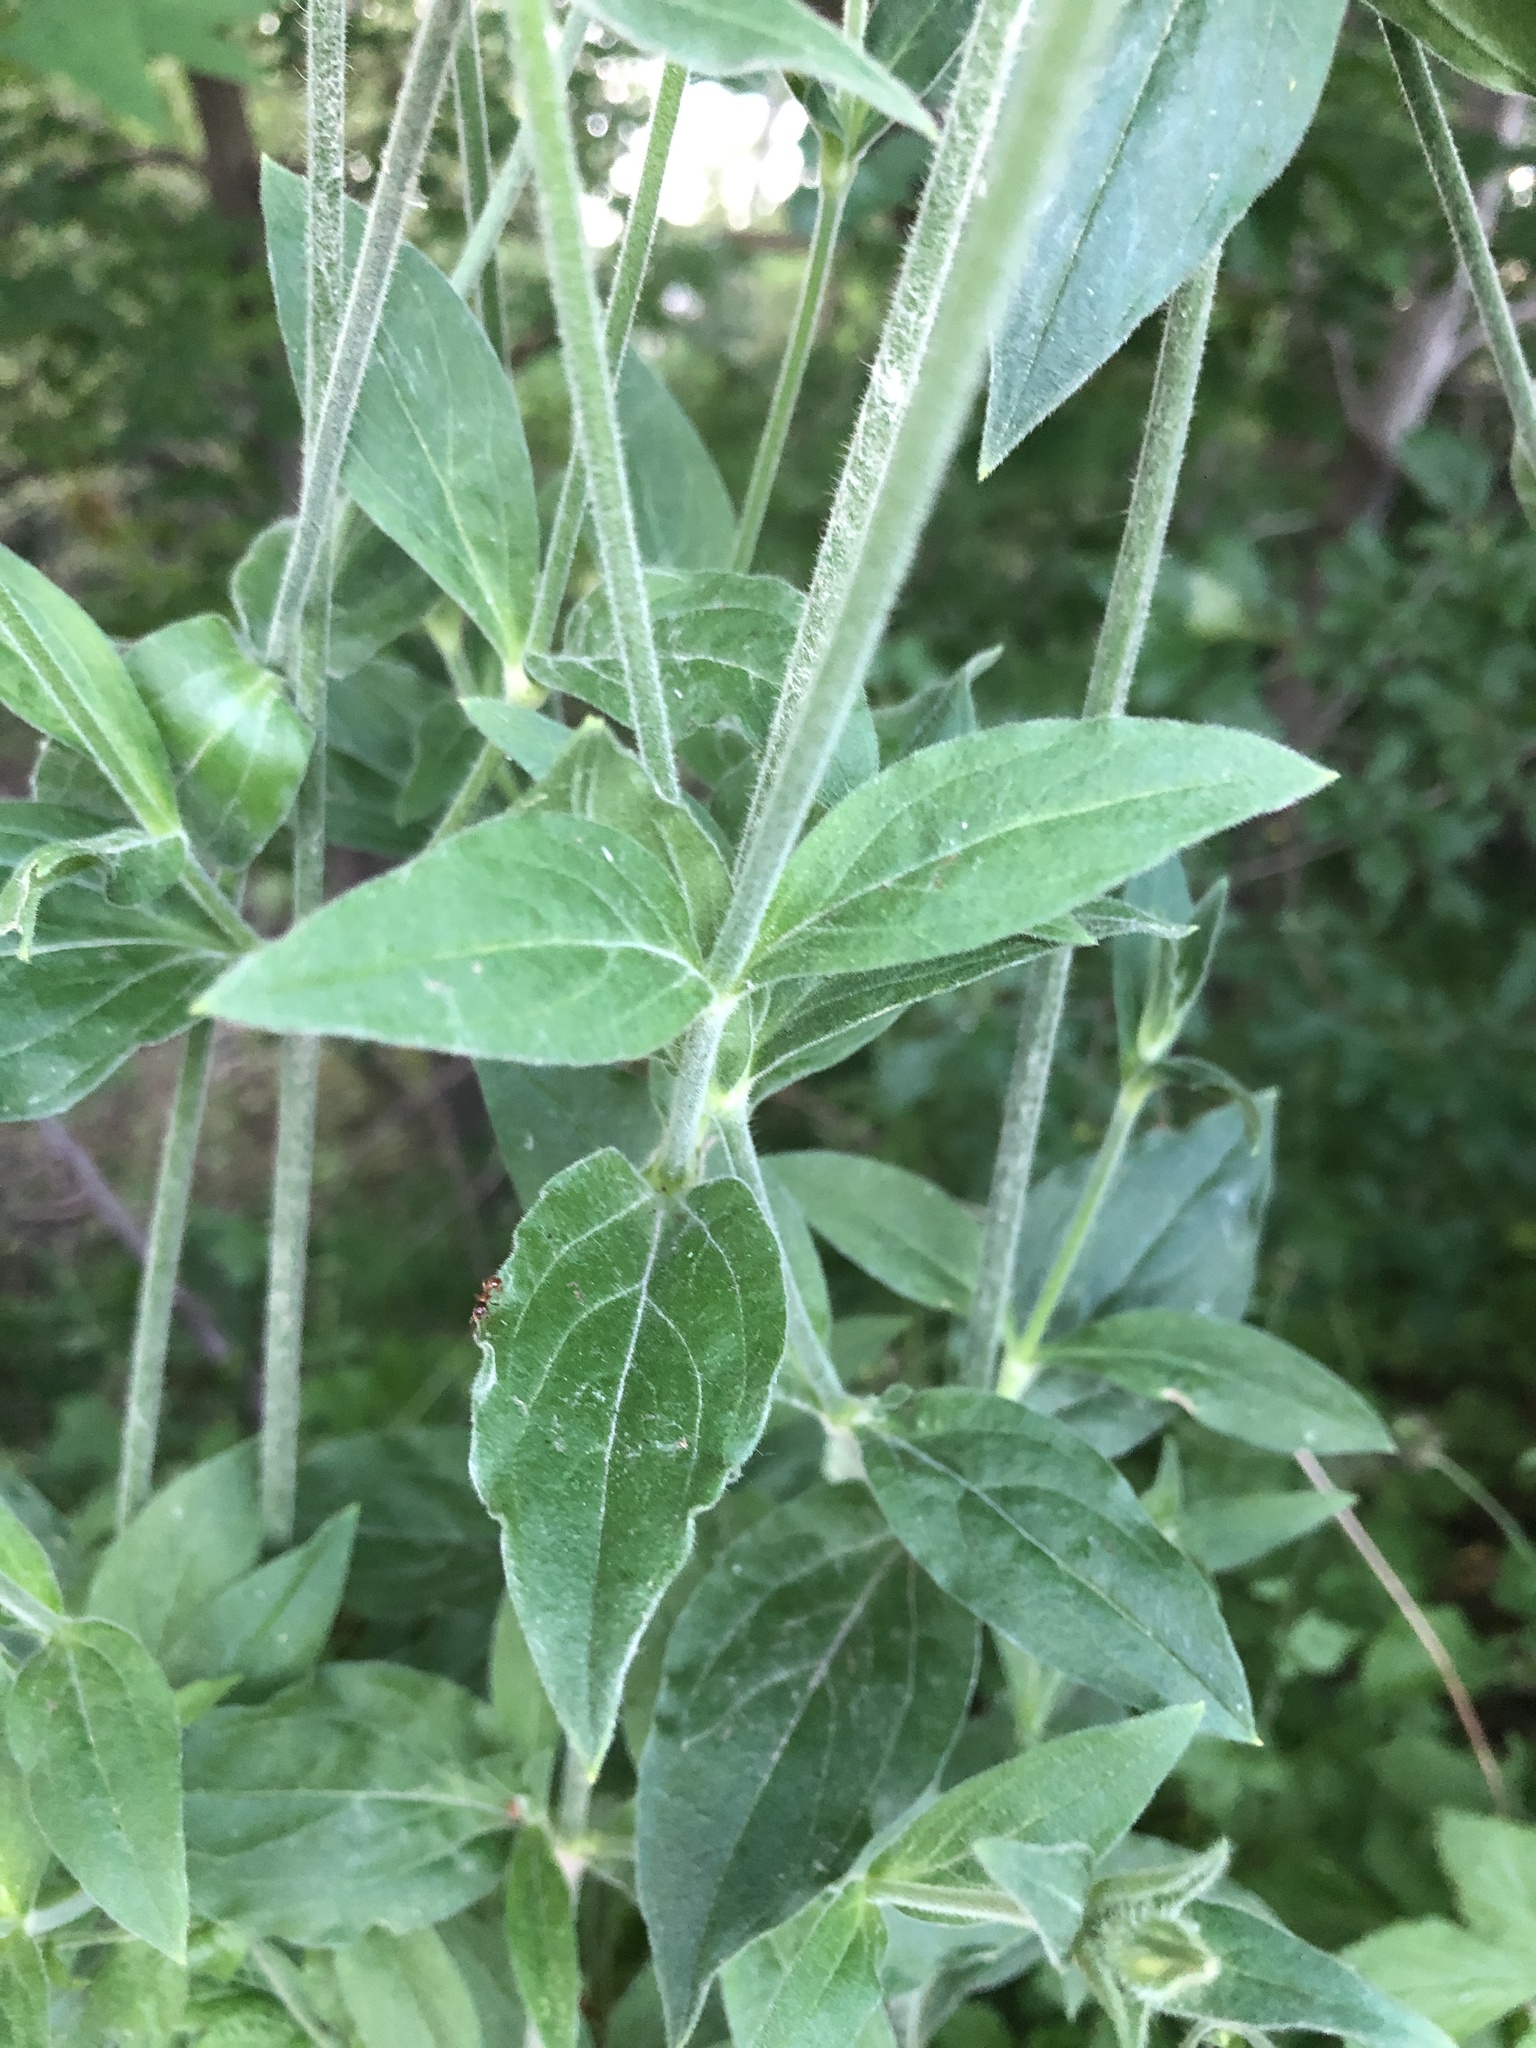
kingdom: Plantae
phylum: Tracheophyta
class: Magnoliopsida
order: Caryophyllales
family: Caryophyllaceae
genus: Silene
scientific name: Silene latifolia
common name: White campion
